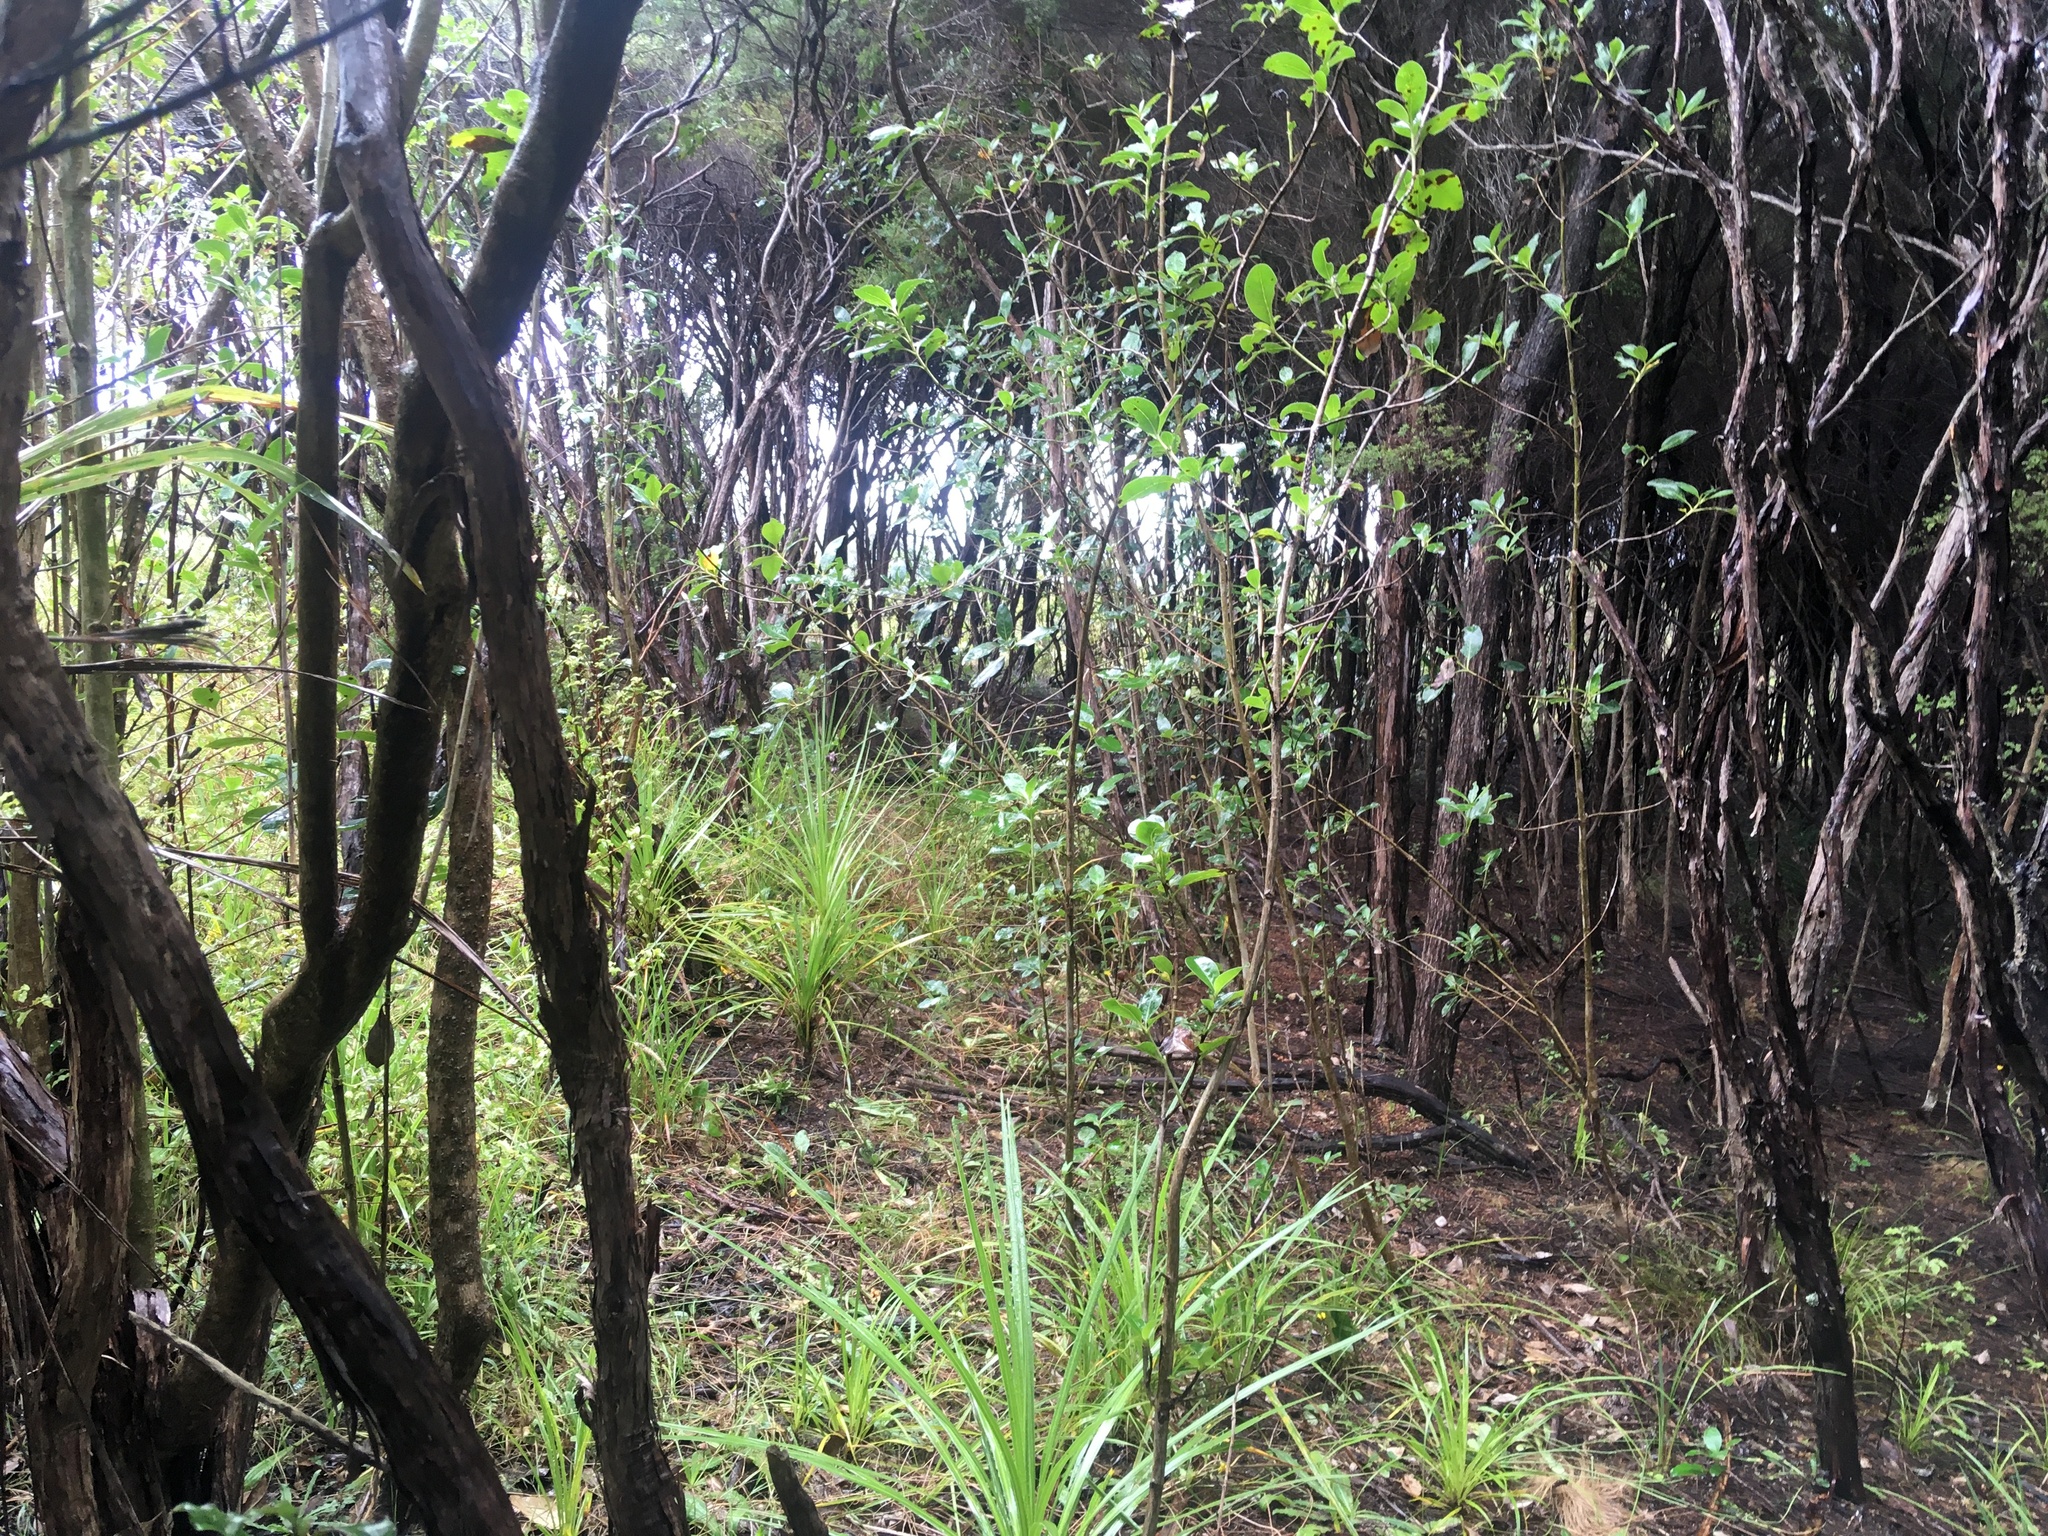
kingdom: Plantae
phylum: Tracheophyta
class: Liliopsida
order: Asparagales
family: Asparagaceae
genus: Cordyline
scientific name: Cordyline australis
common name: Cabbage-palm
